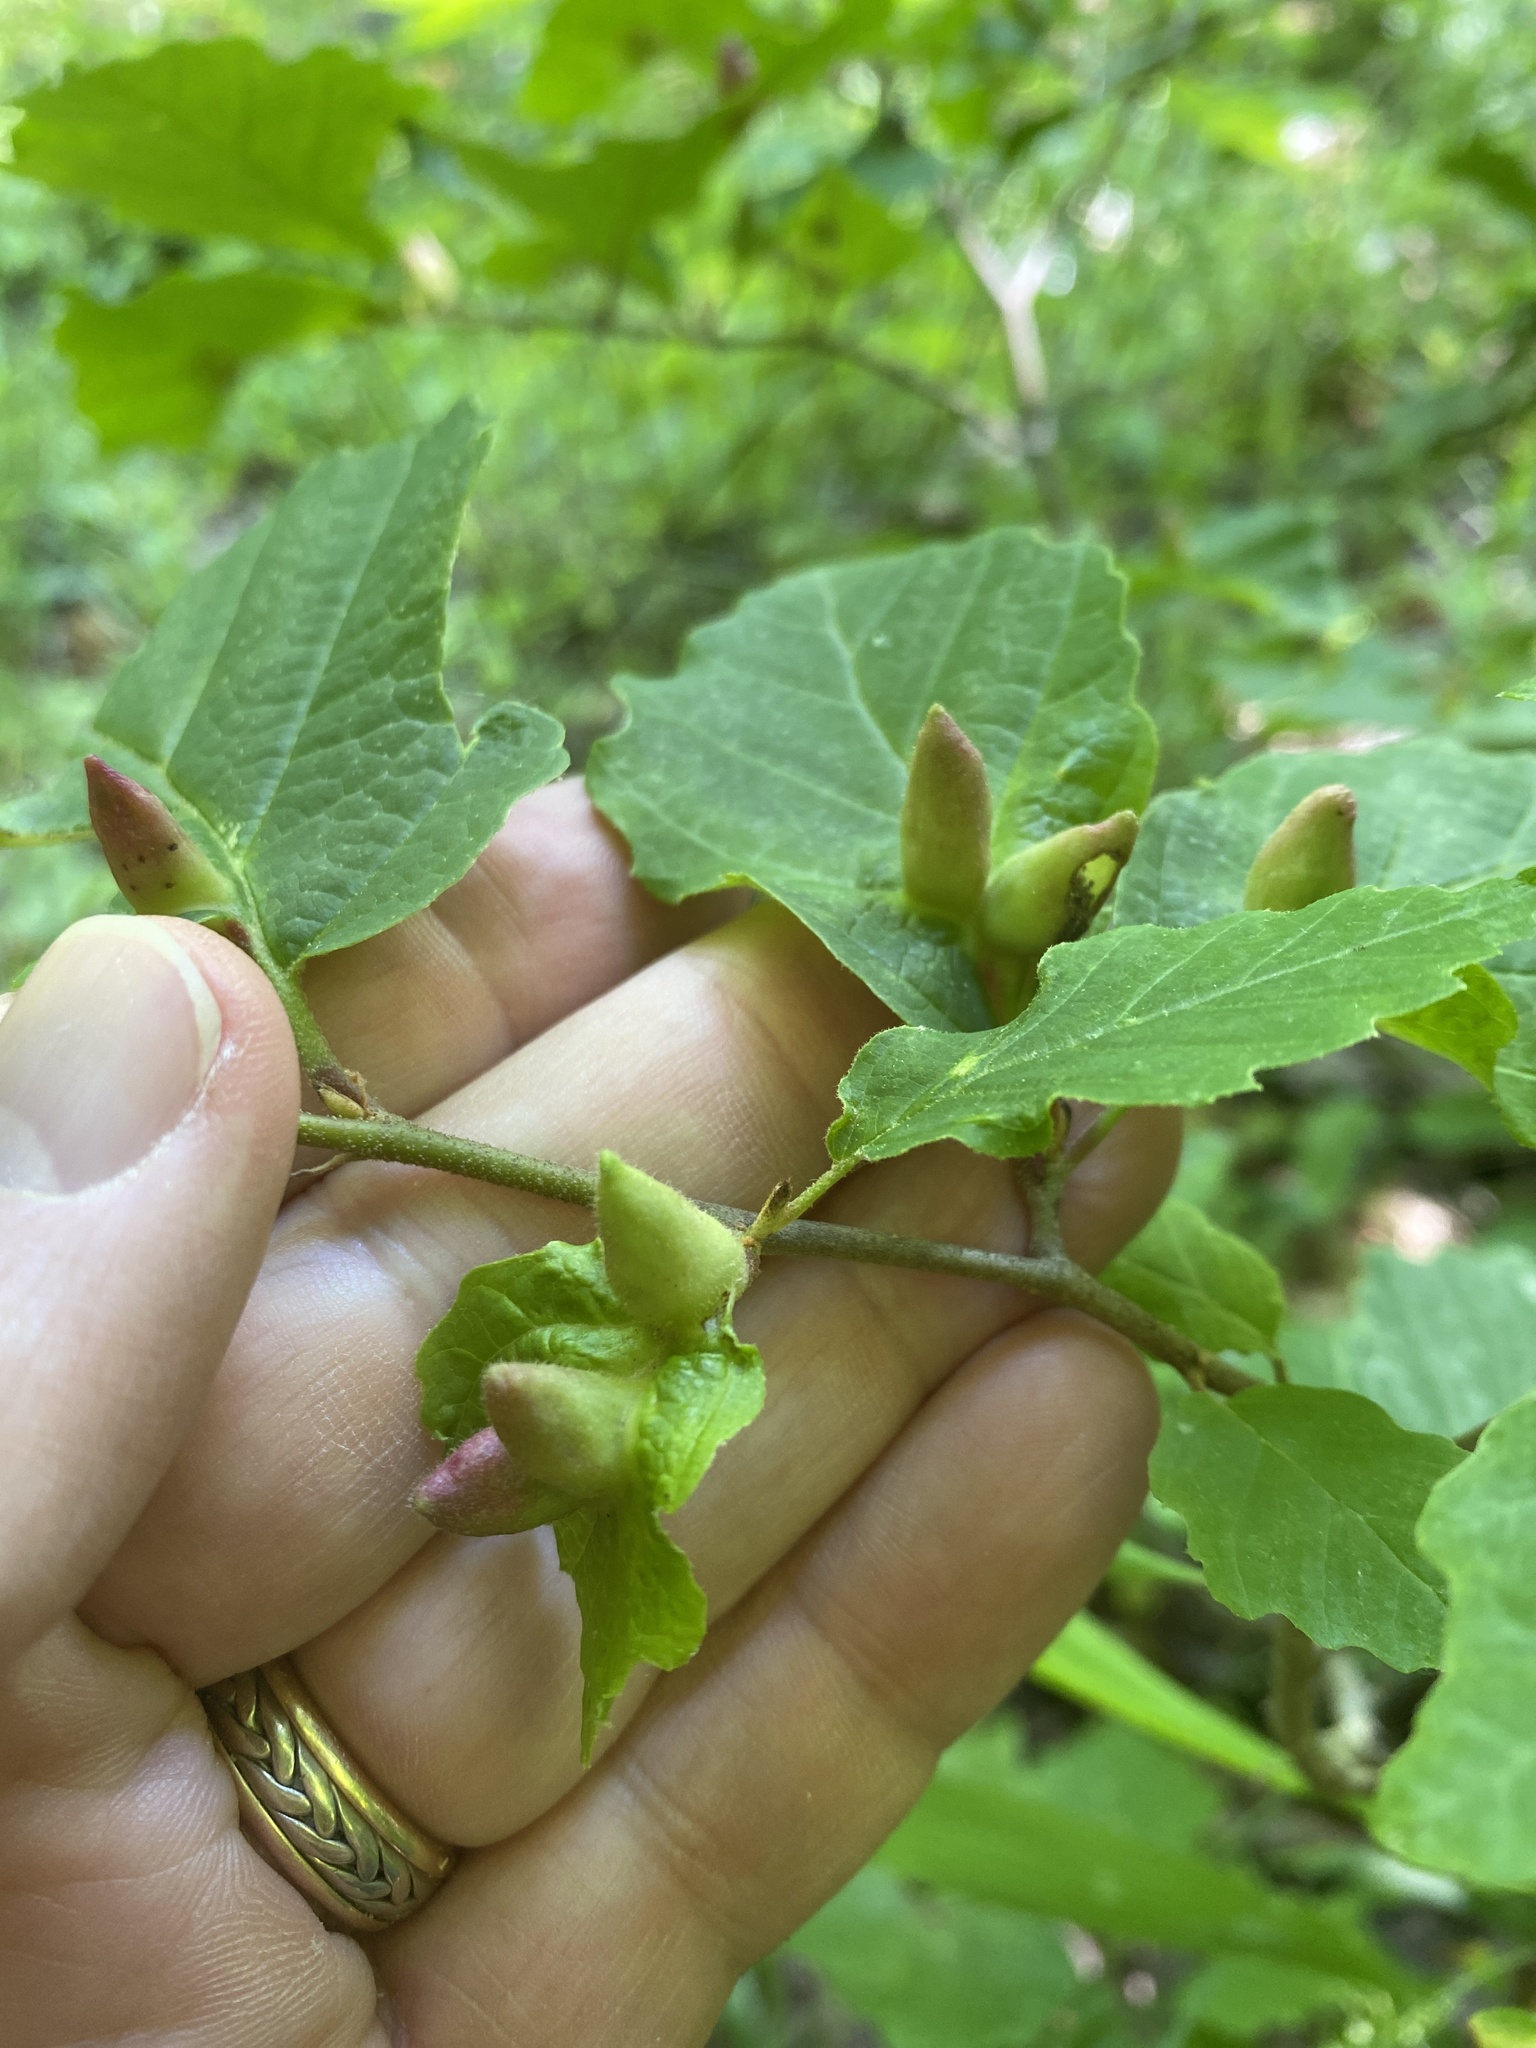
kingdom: Animalia
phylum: Arthropoda
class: Insecta
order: Hemiptera
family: Aphididae
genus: Hormaphis
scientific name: Hormaphis hamamelidis
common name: Witch-hazel cone gall aphid
